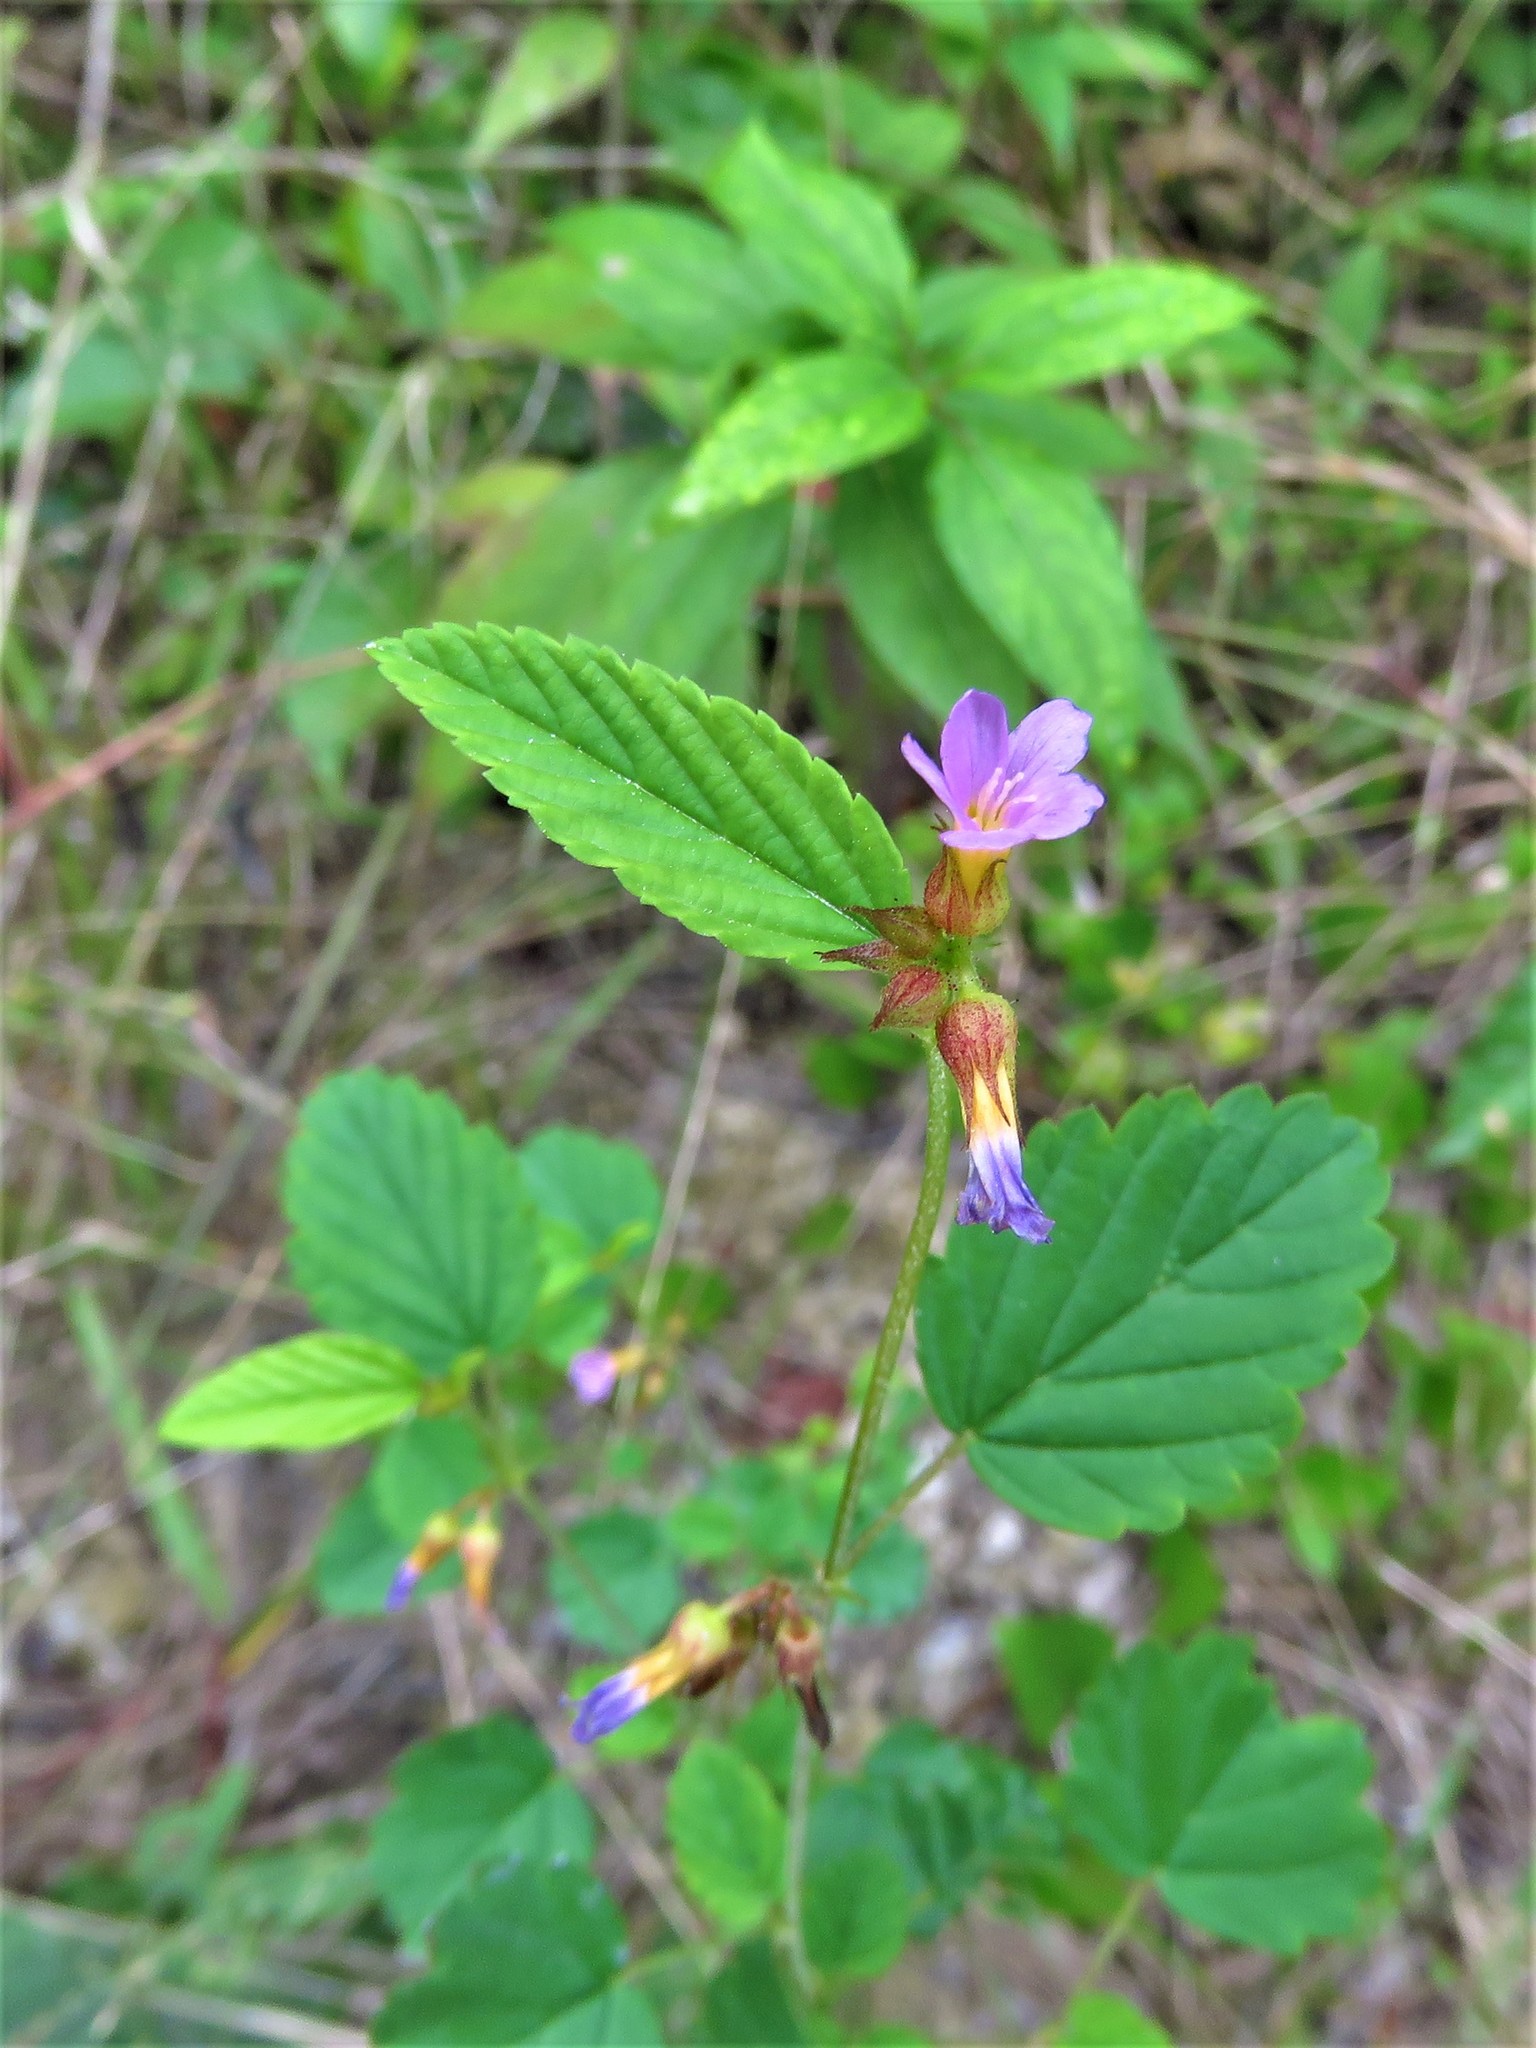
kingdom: Plantae
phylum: Tracheophyta
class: Magnoliopsida
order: Malvales
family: Malvaceae
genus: Melochia
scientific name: Melochia pyramidata
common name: Pyramidflower
